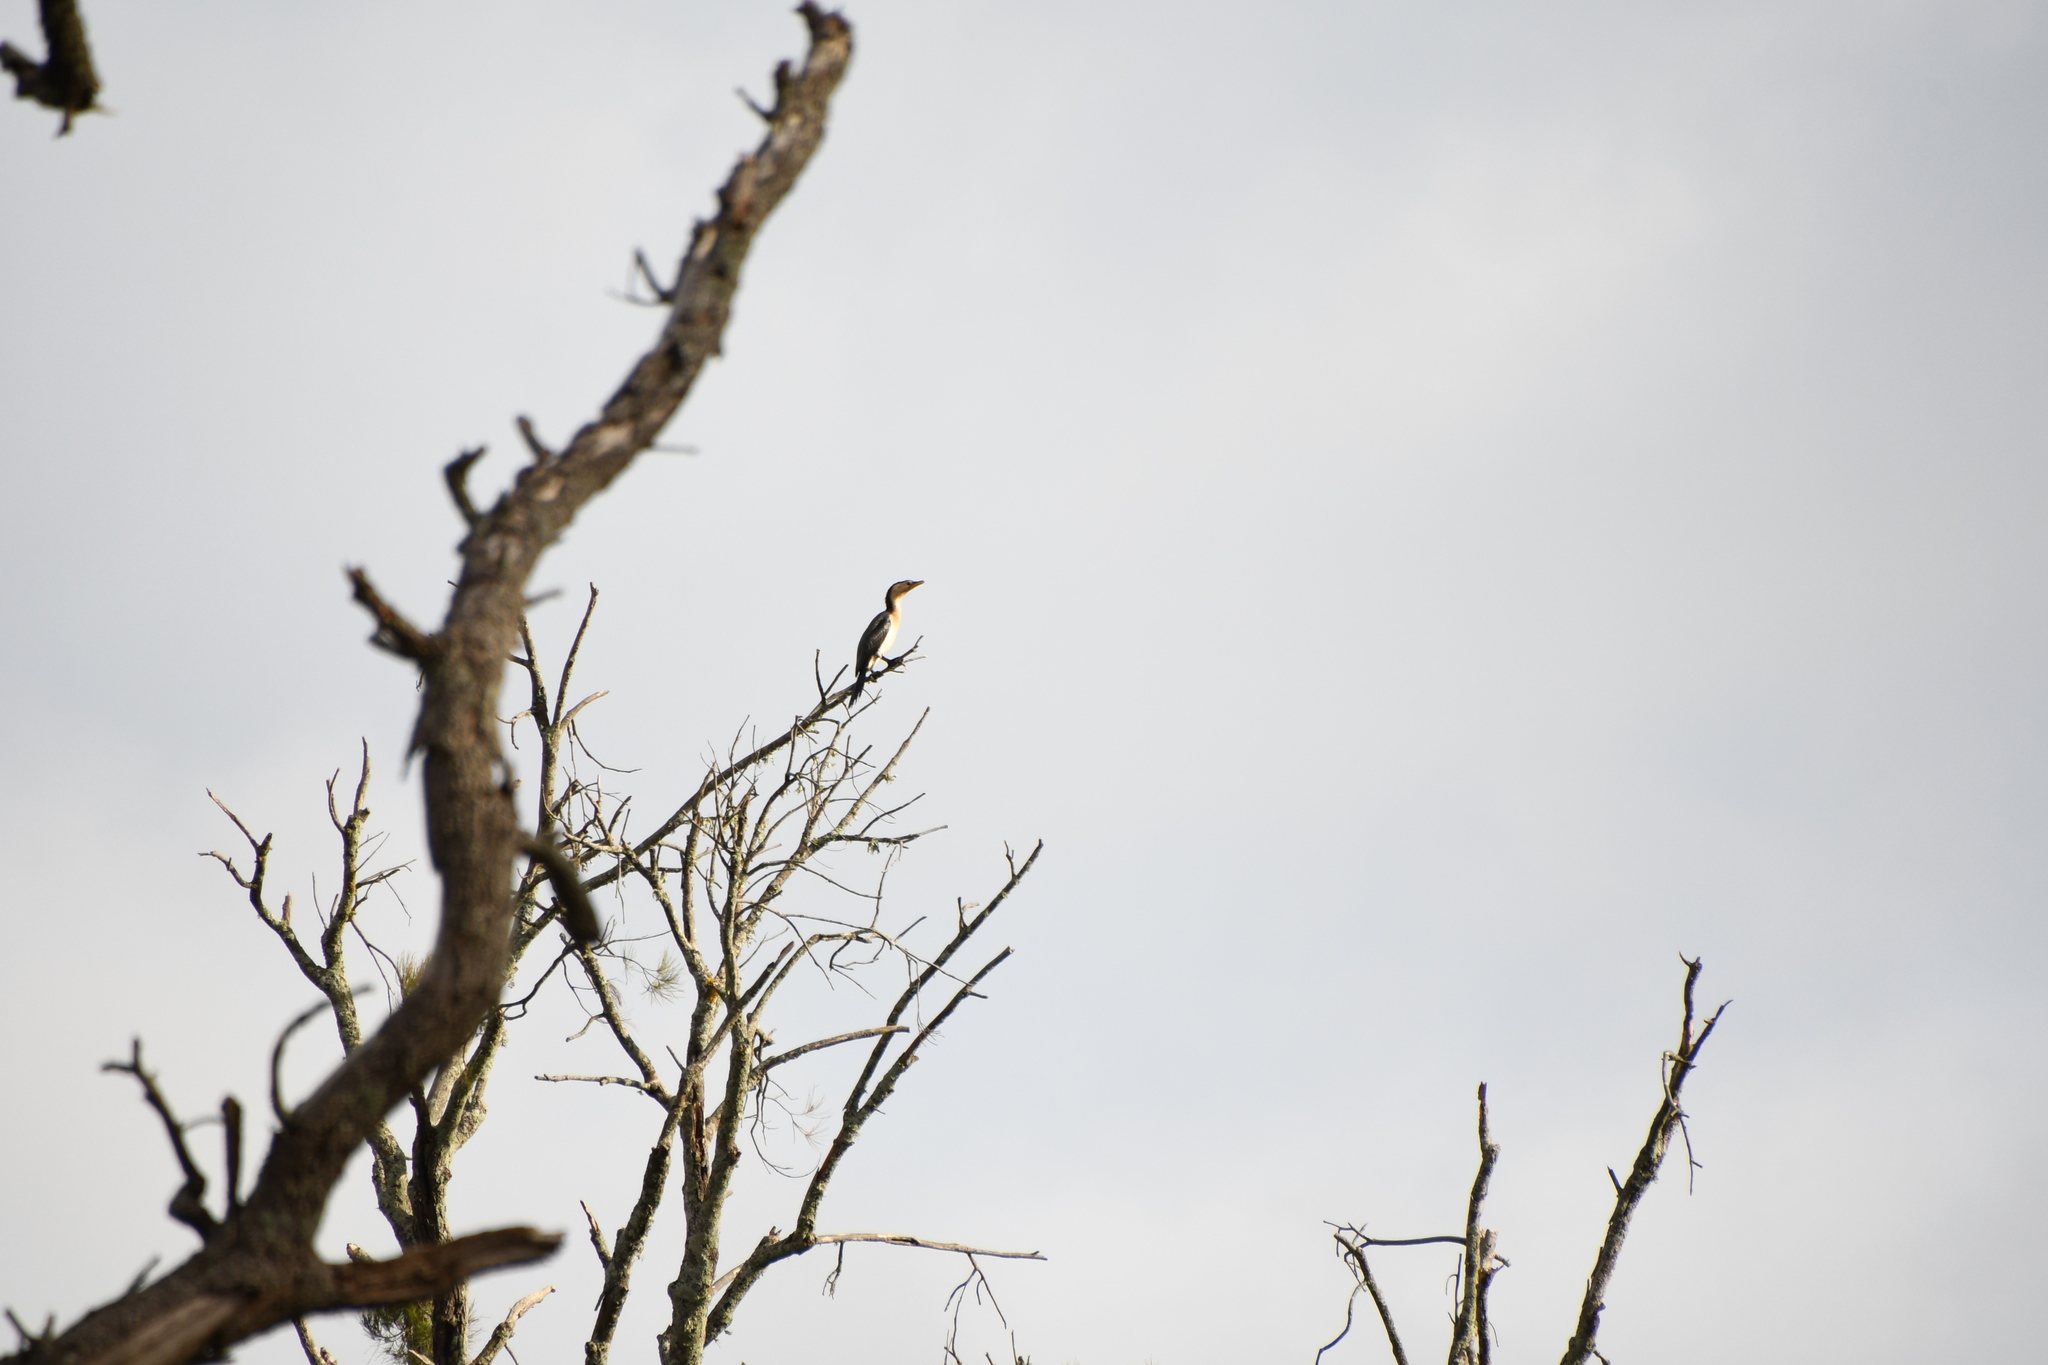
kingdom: Animalia
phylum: Chordata
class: Aves
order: Suliformes
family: Phalacrocoracidae
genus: Microcarbo
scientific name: Microcarbo melanoleucos
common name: Little pied cormorant
